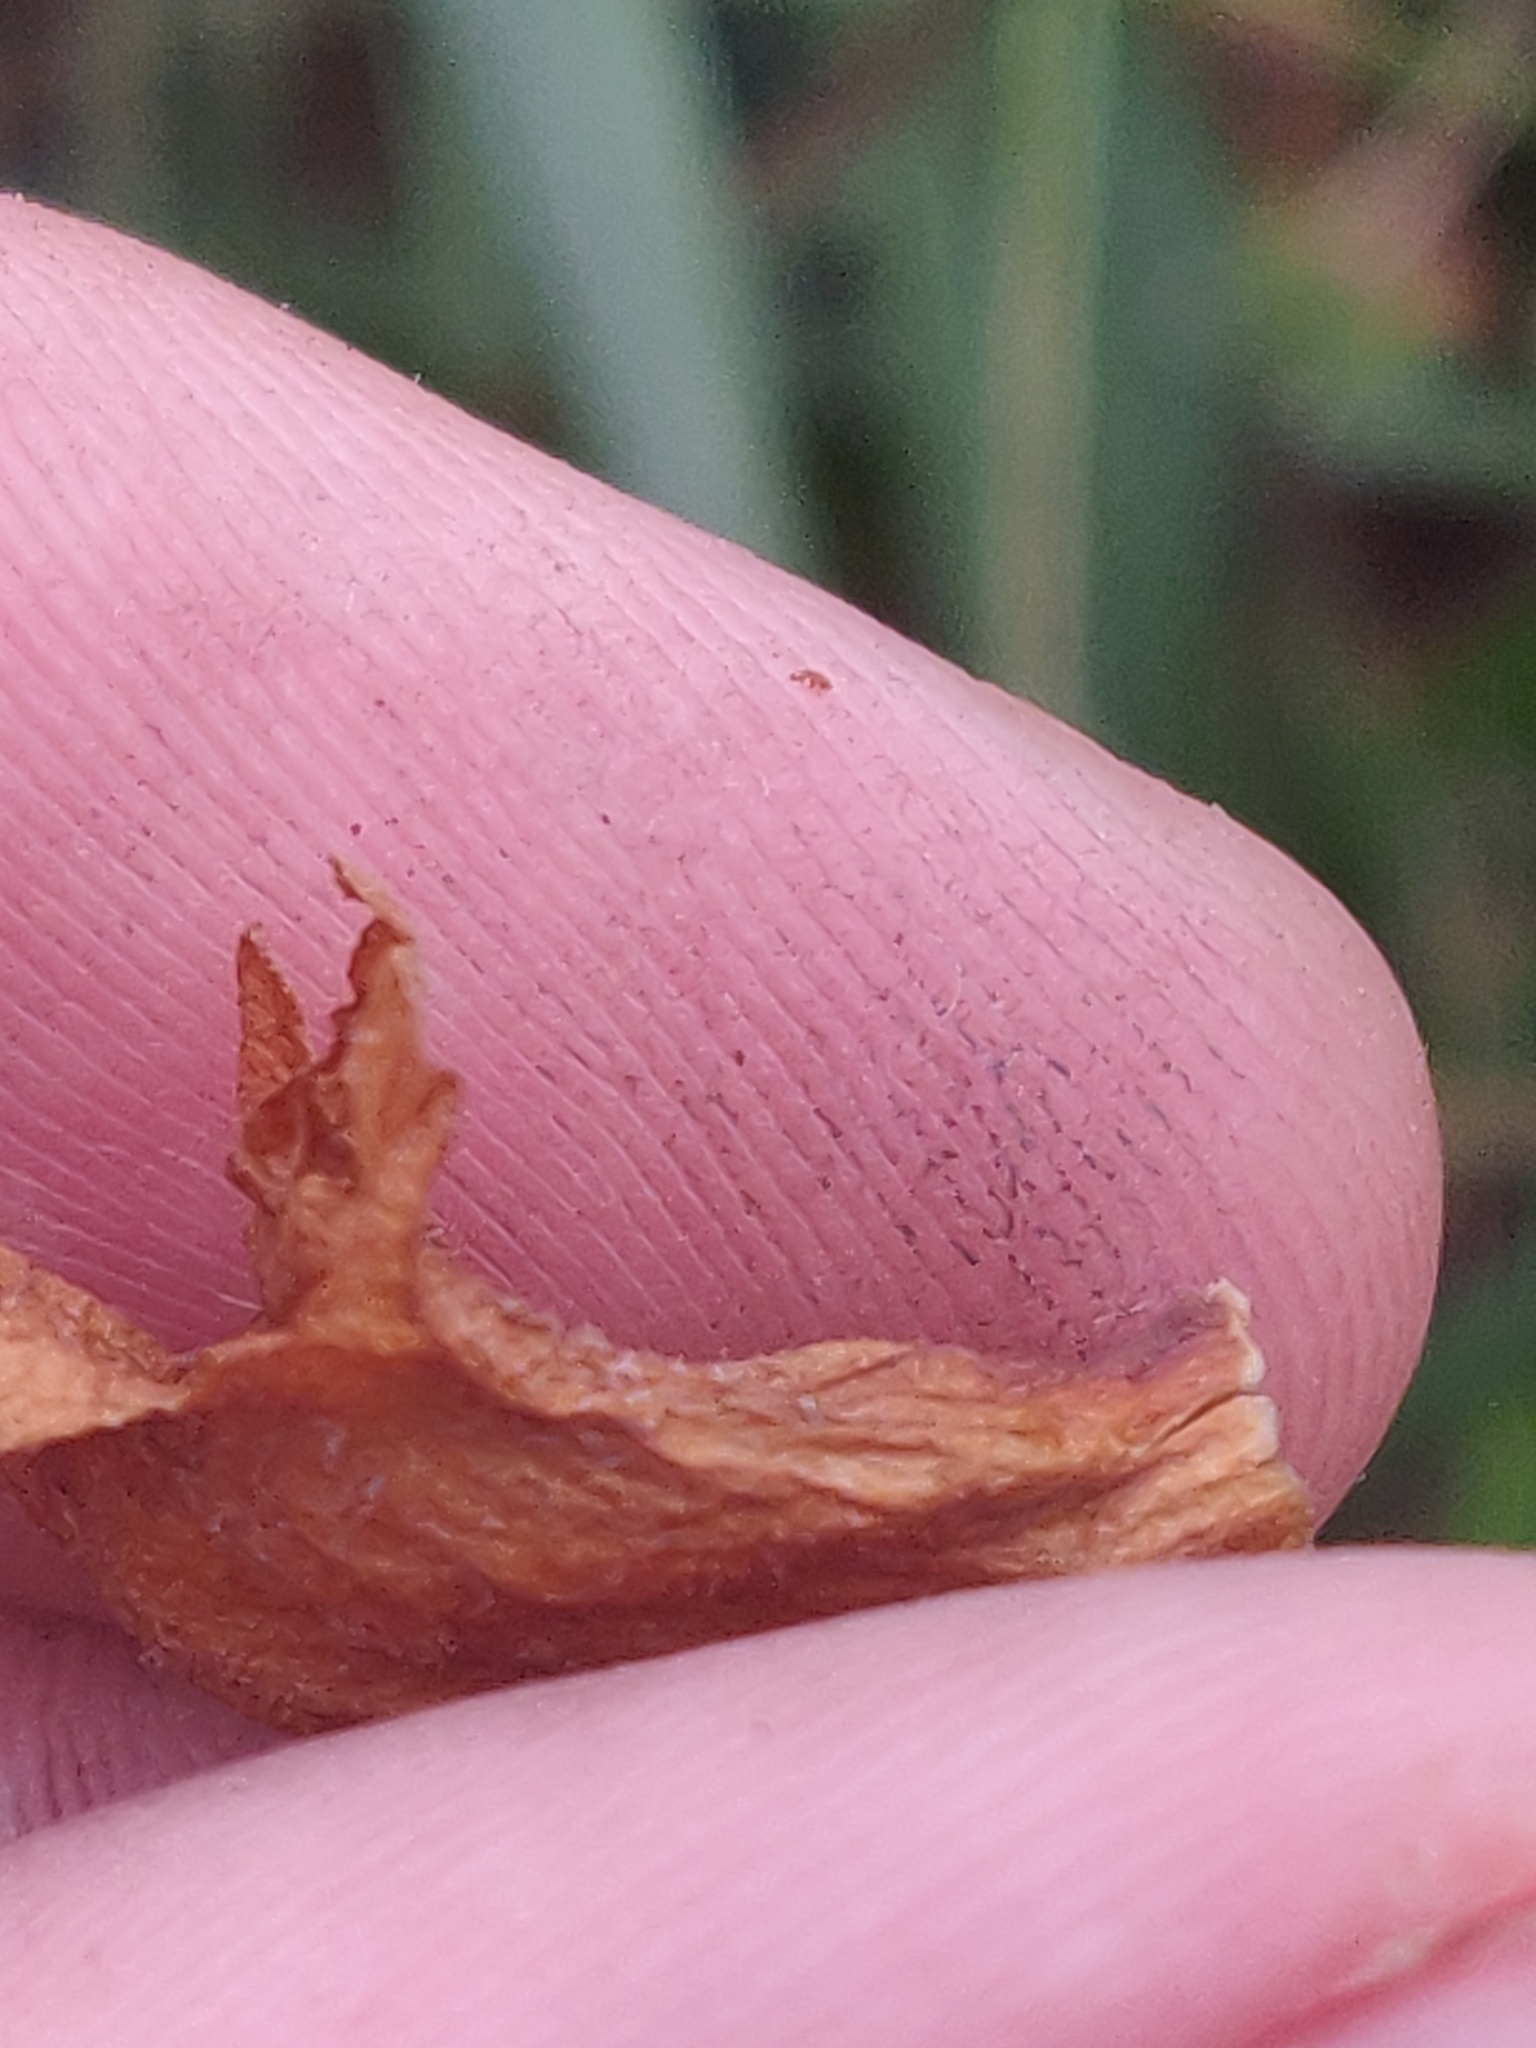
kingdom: Plantae
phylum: Tracheophyta
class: Magnoliopsida
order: Lamiales
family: Orobanchaceae
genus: Orobanche
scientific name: Orobanche rapum-genistae
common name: Greater broomrape
